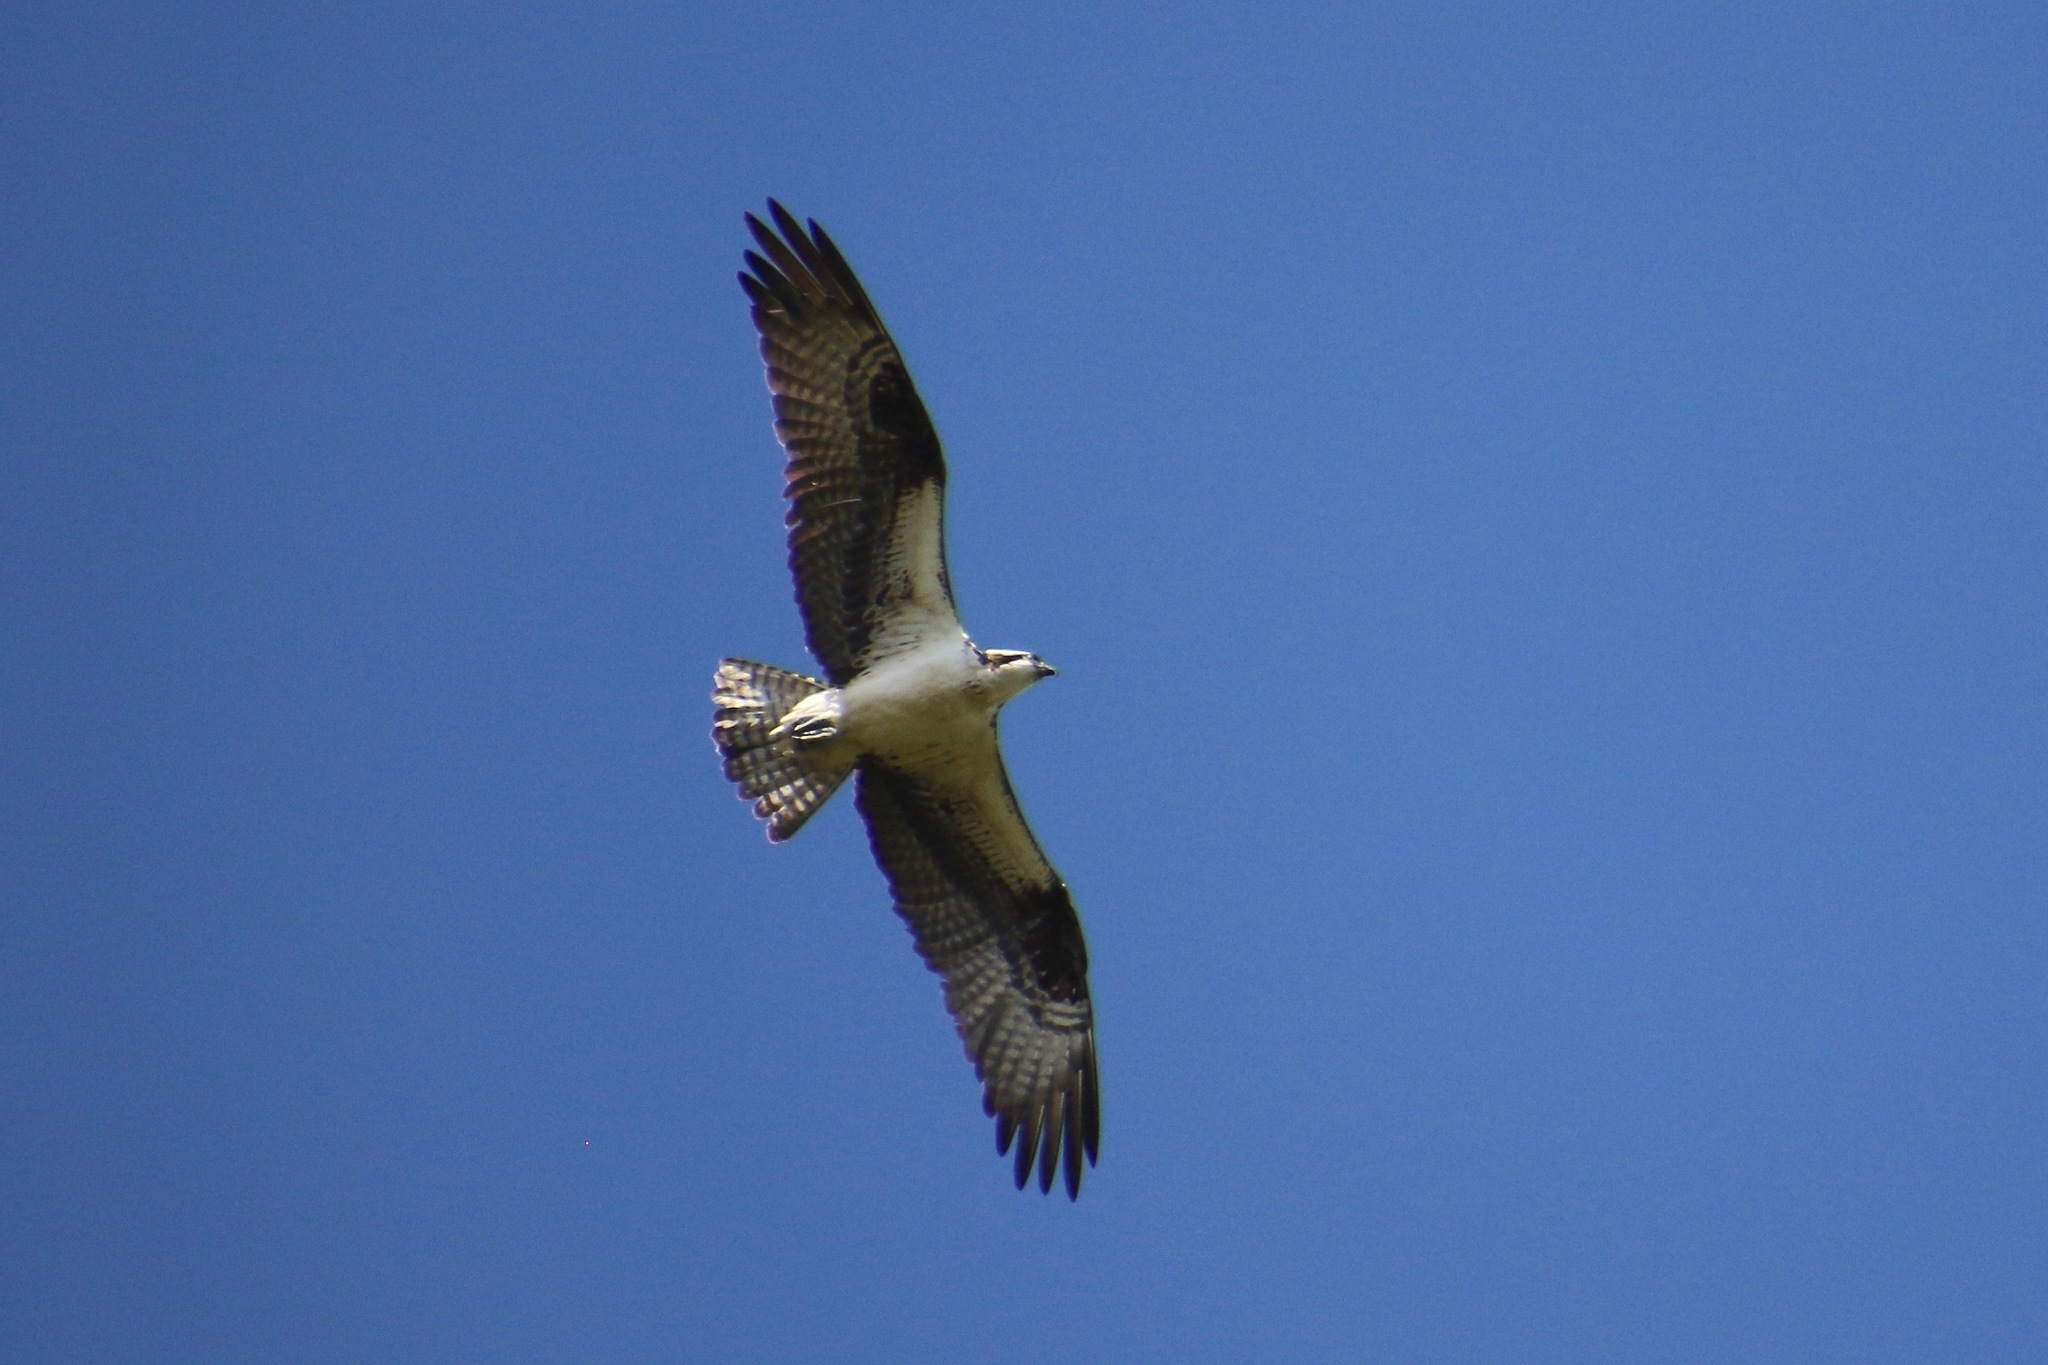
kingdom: Animalia
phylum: Chordata
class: Aves
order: Accipitriformes
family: Pandionidae
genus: Pandion
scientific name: Pandion haliaetus
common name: Osprey
